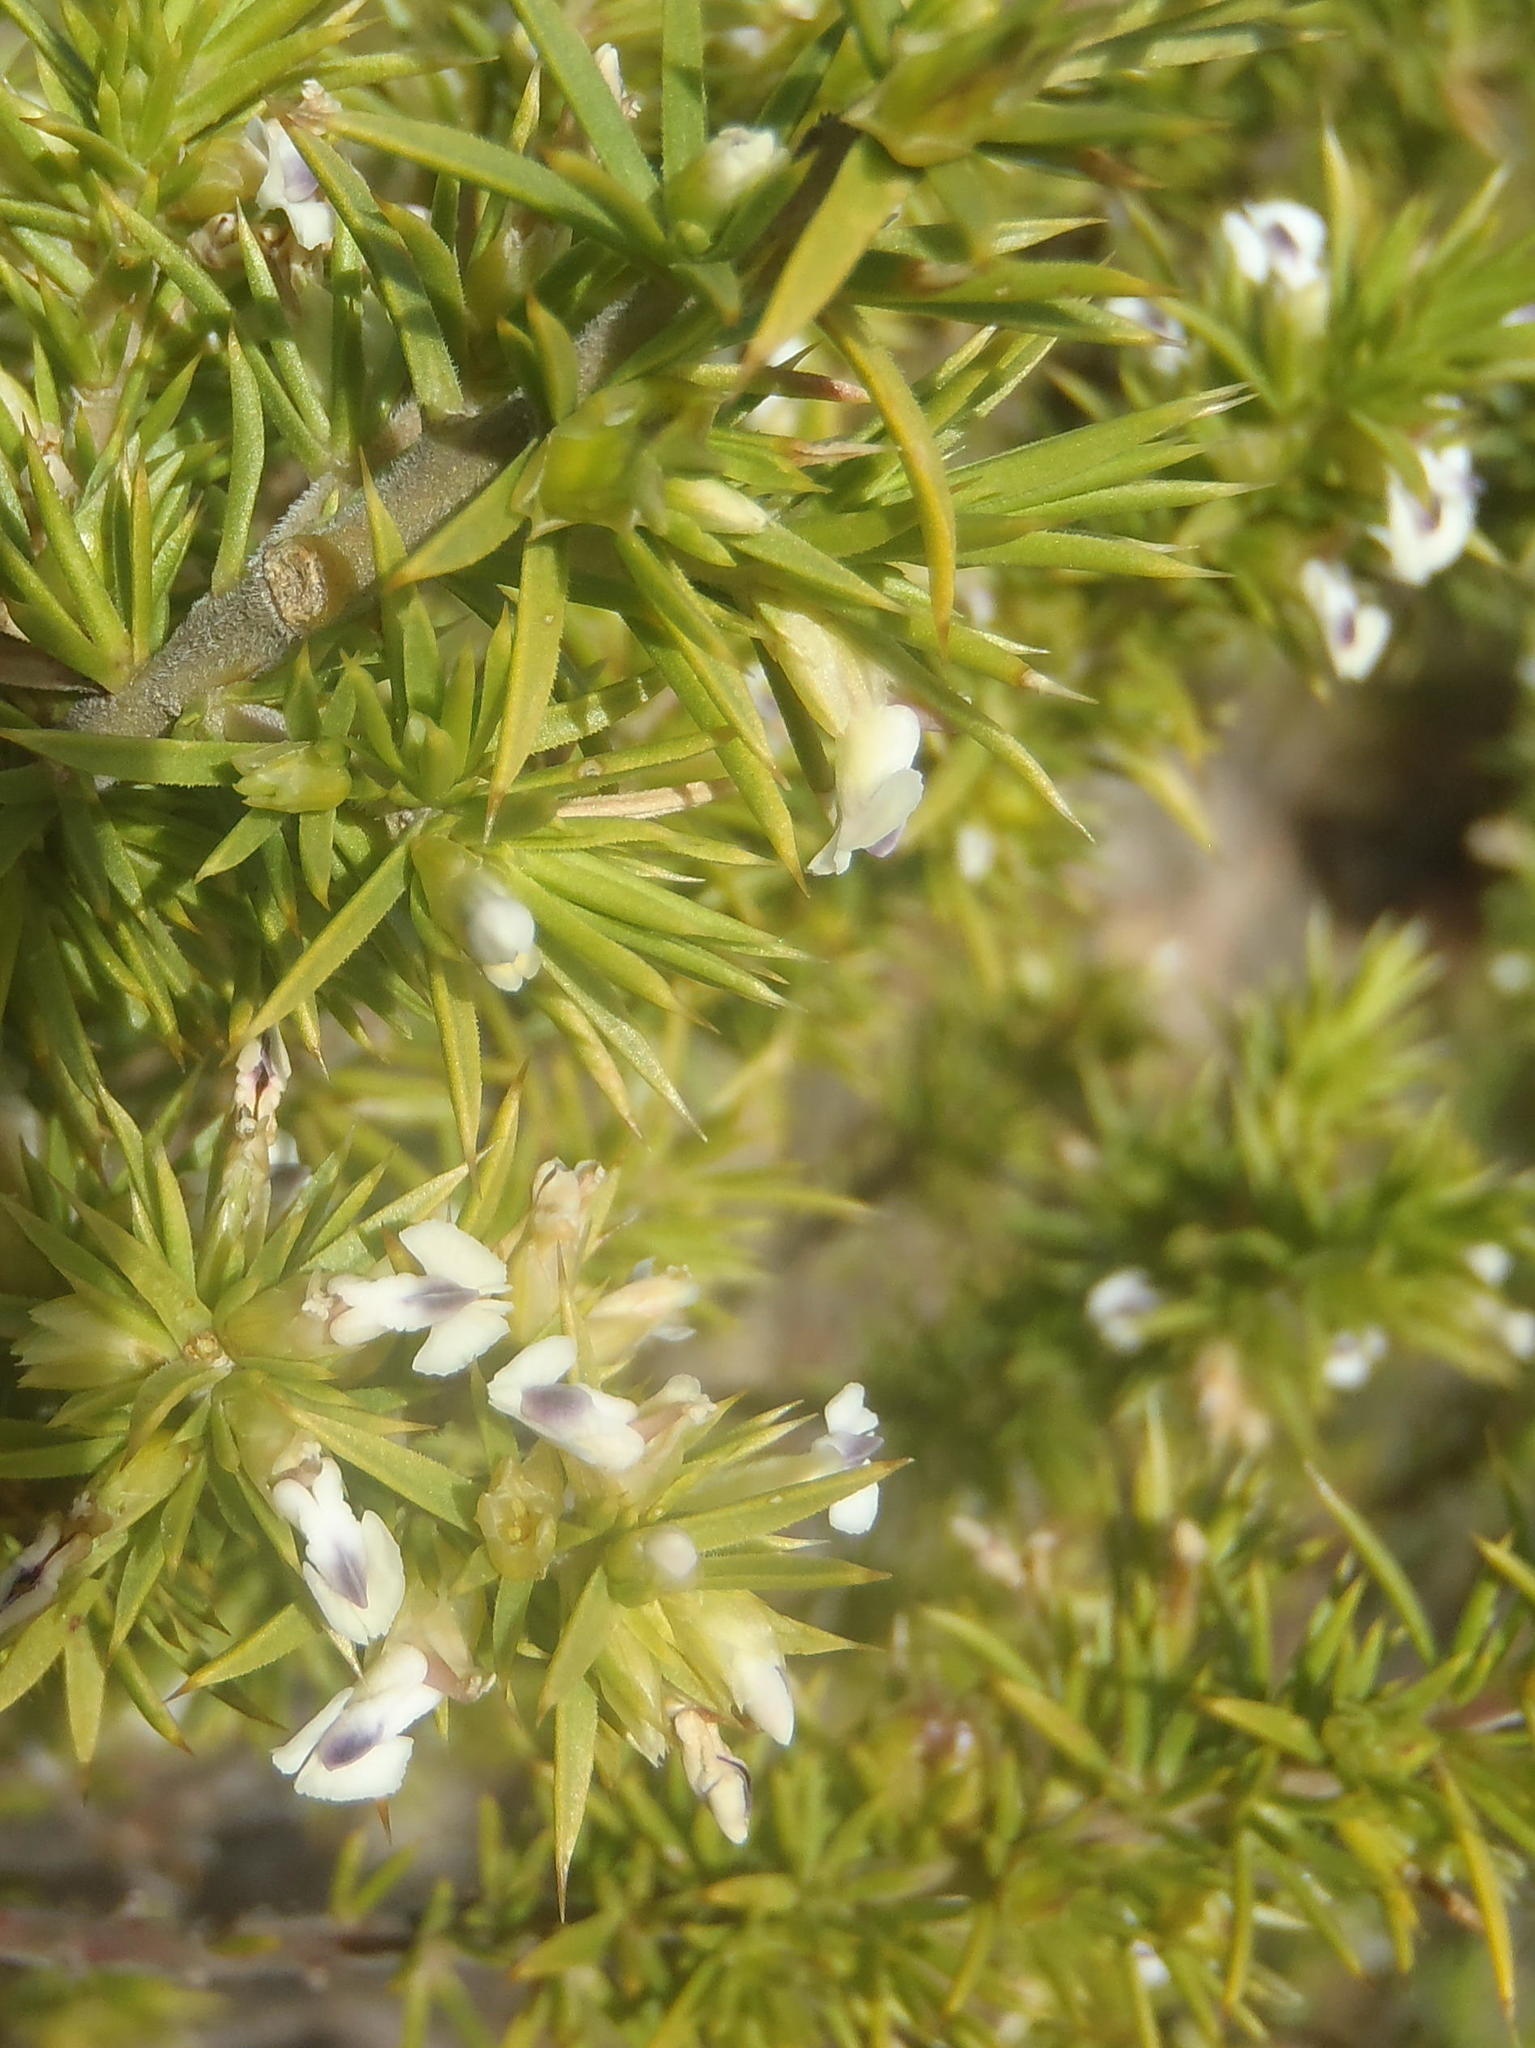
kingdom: Plantae
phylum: Tracheophyta
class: Magnoliopsida
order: Fabales
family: Polygalaceae
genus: Muraltia
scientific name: Muraltia ericifolia
